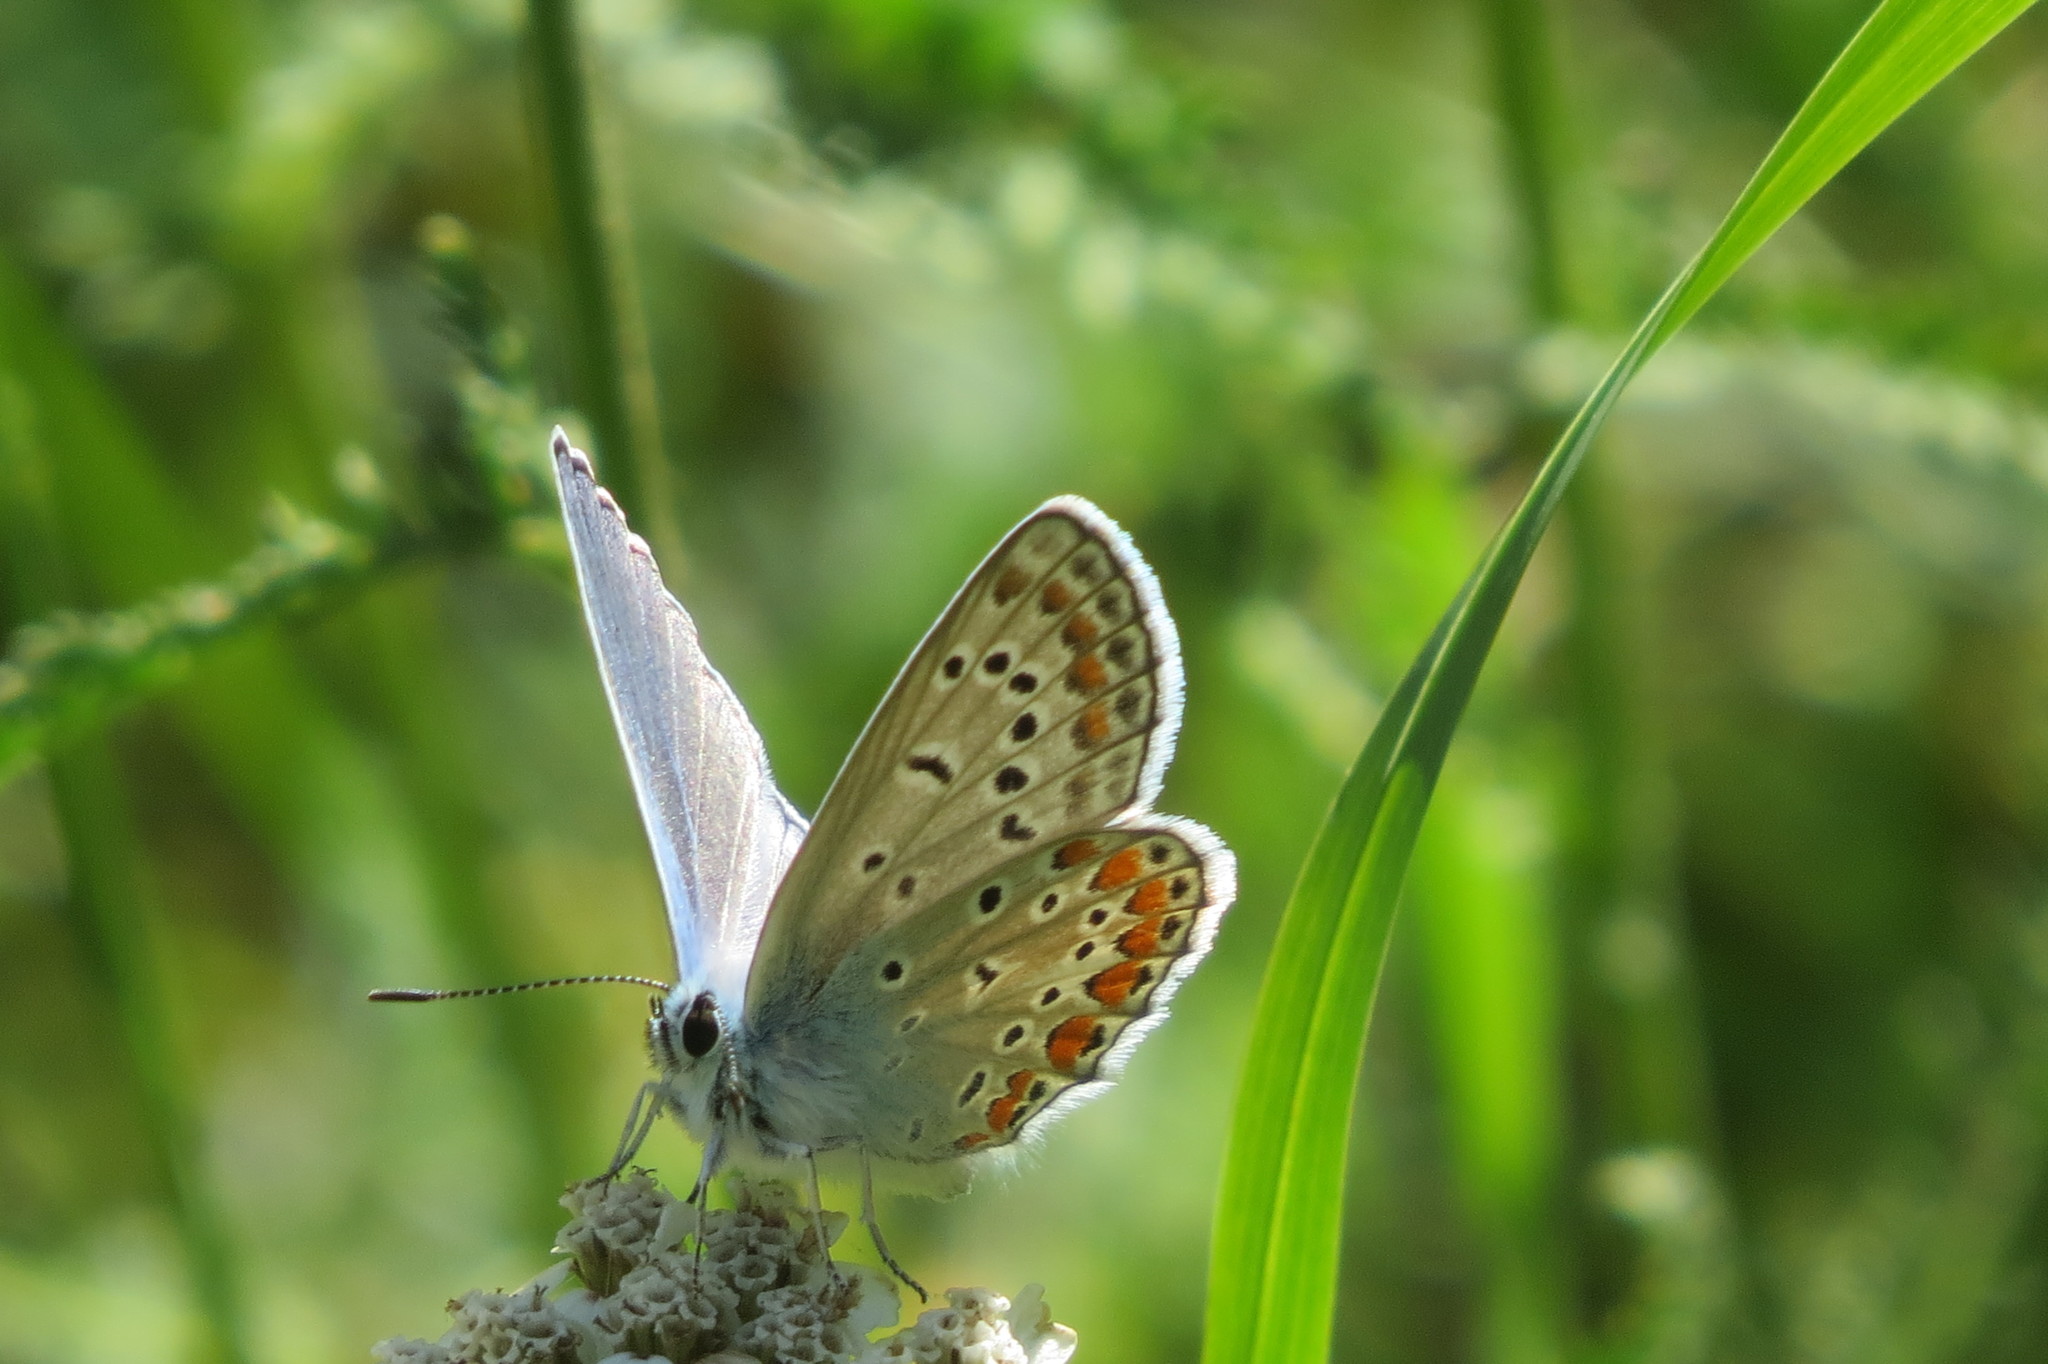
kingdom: Animalia
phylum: Arthropoda
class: Insecta
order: Lepidoptera
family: Lycaenidae
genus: Polyommatus
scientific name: Polyommatus icarus
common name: Common blue
